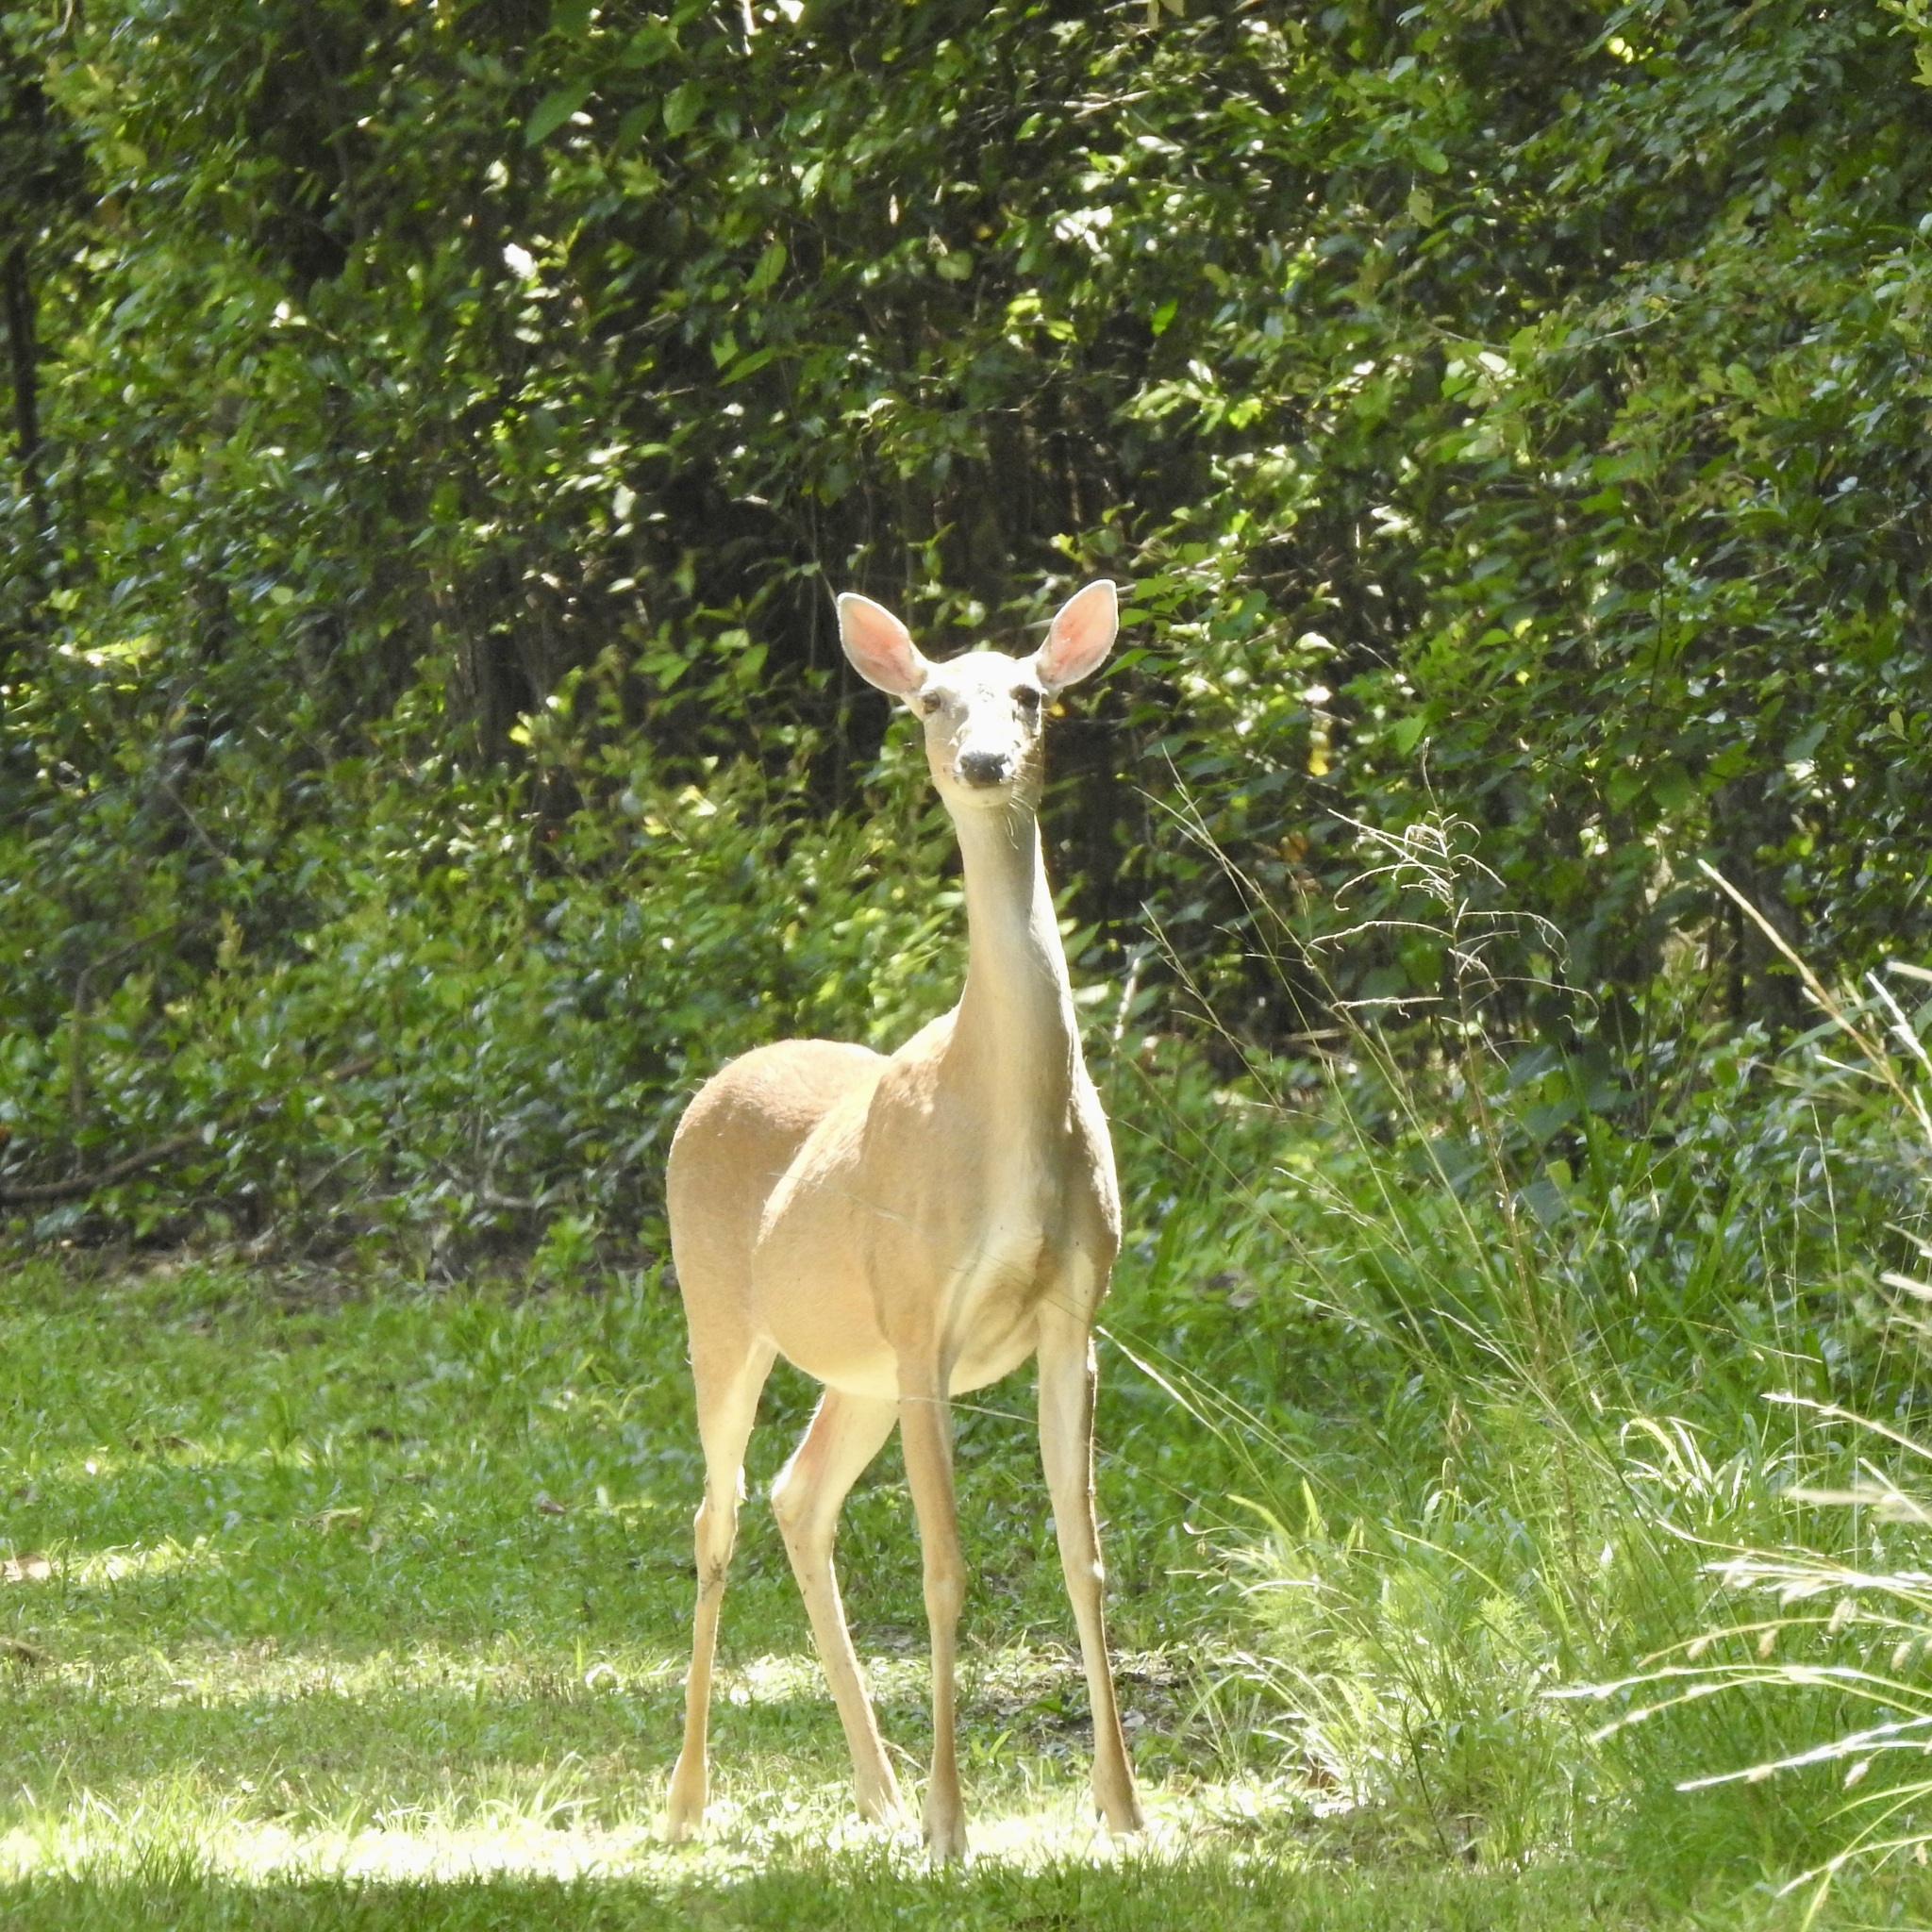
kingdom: Animalia
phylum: Chordata
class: Mammalia
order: Artiodactyla
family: Cervidae
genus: Odocoileus
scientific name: Odocoileus virginianus
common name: White-tailed deer
